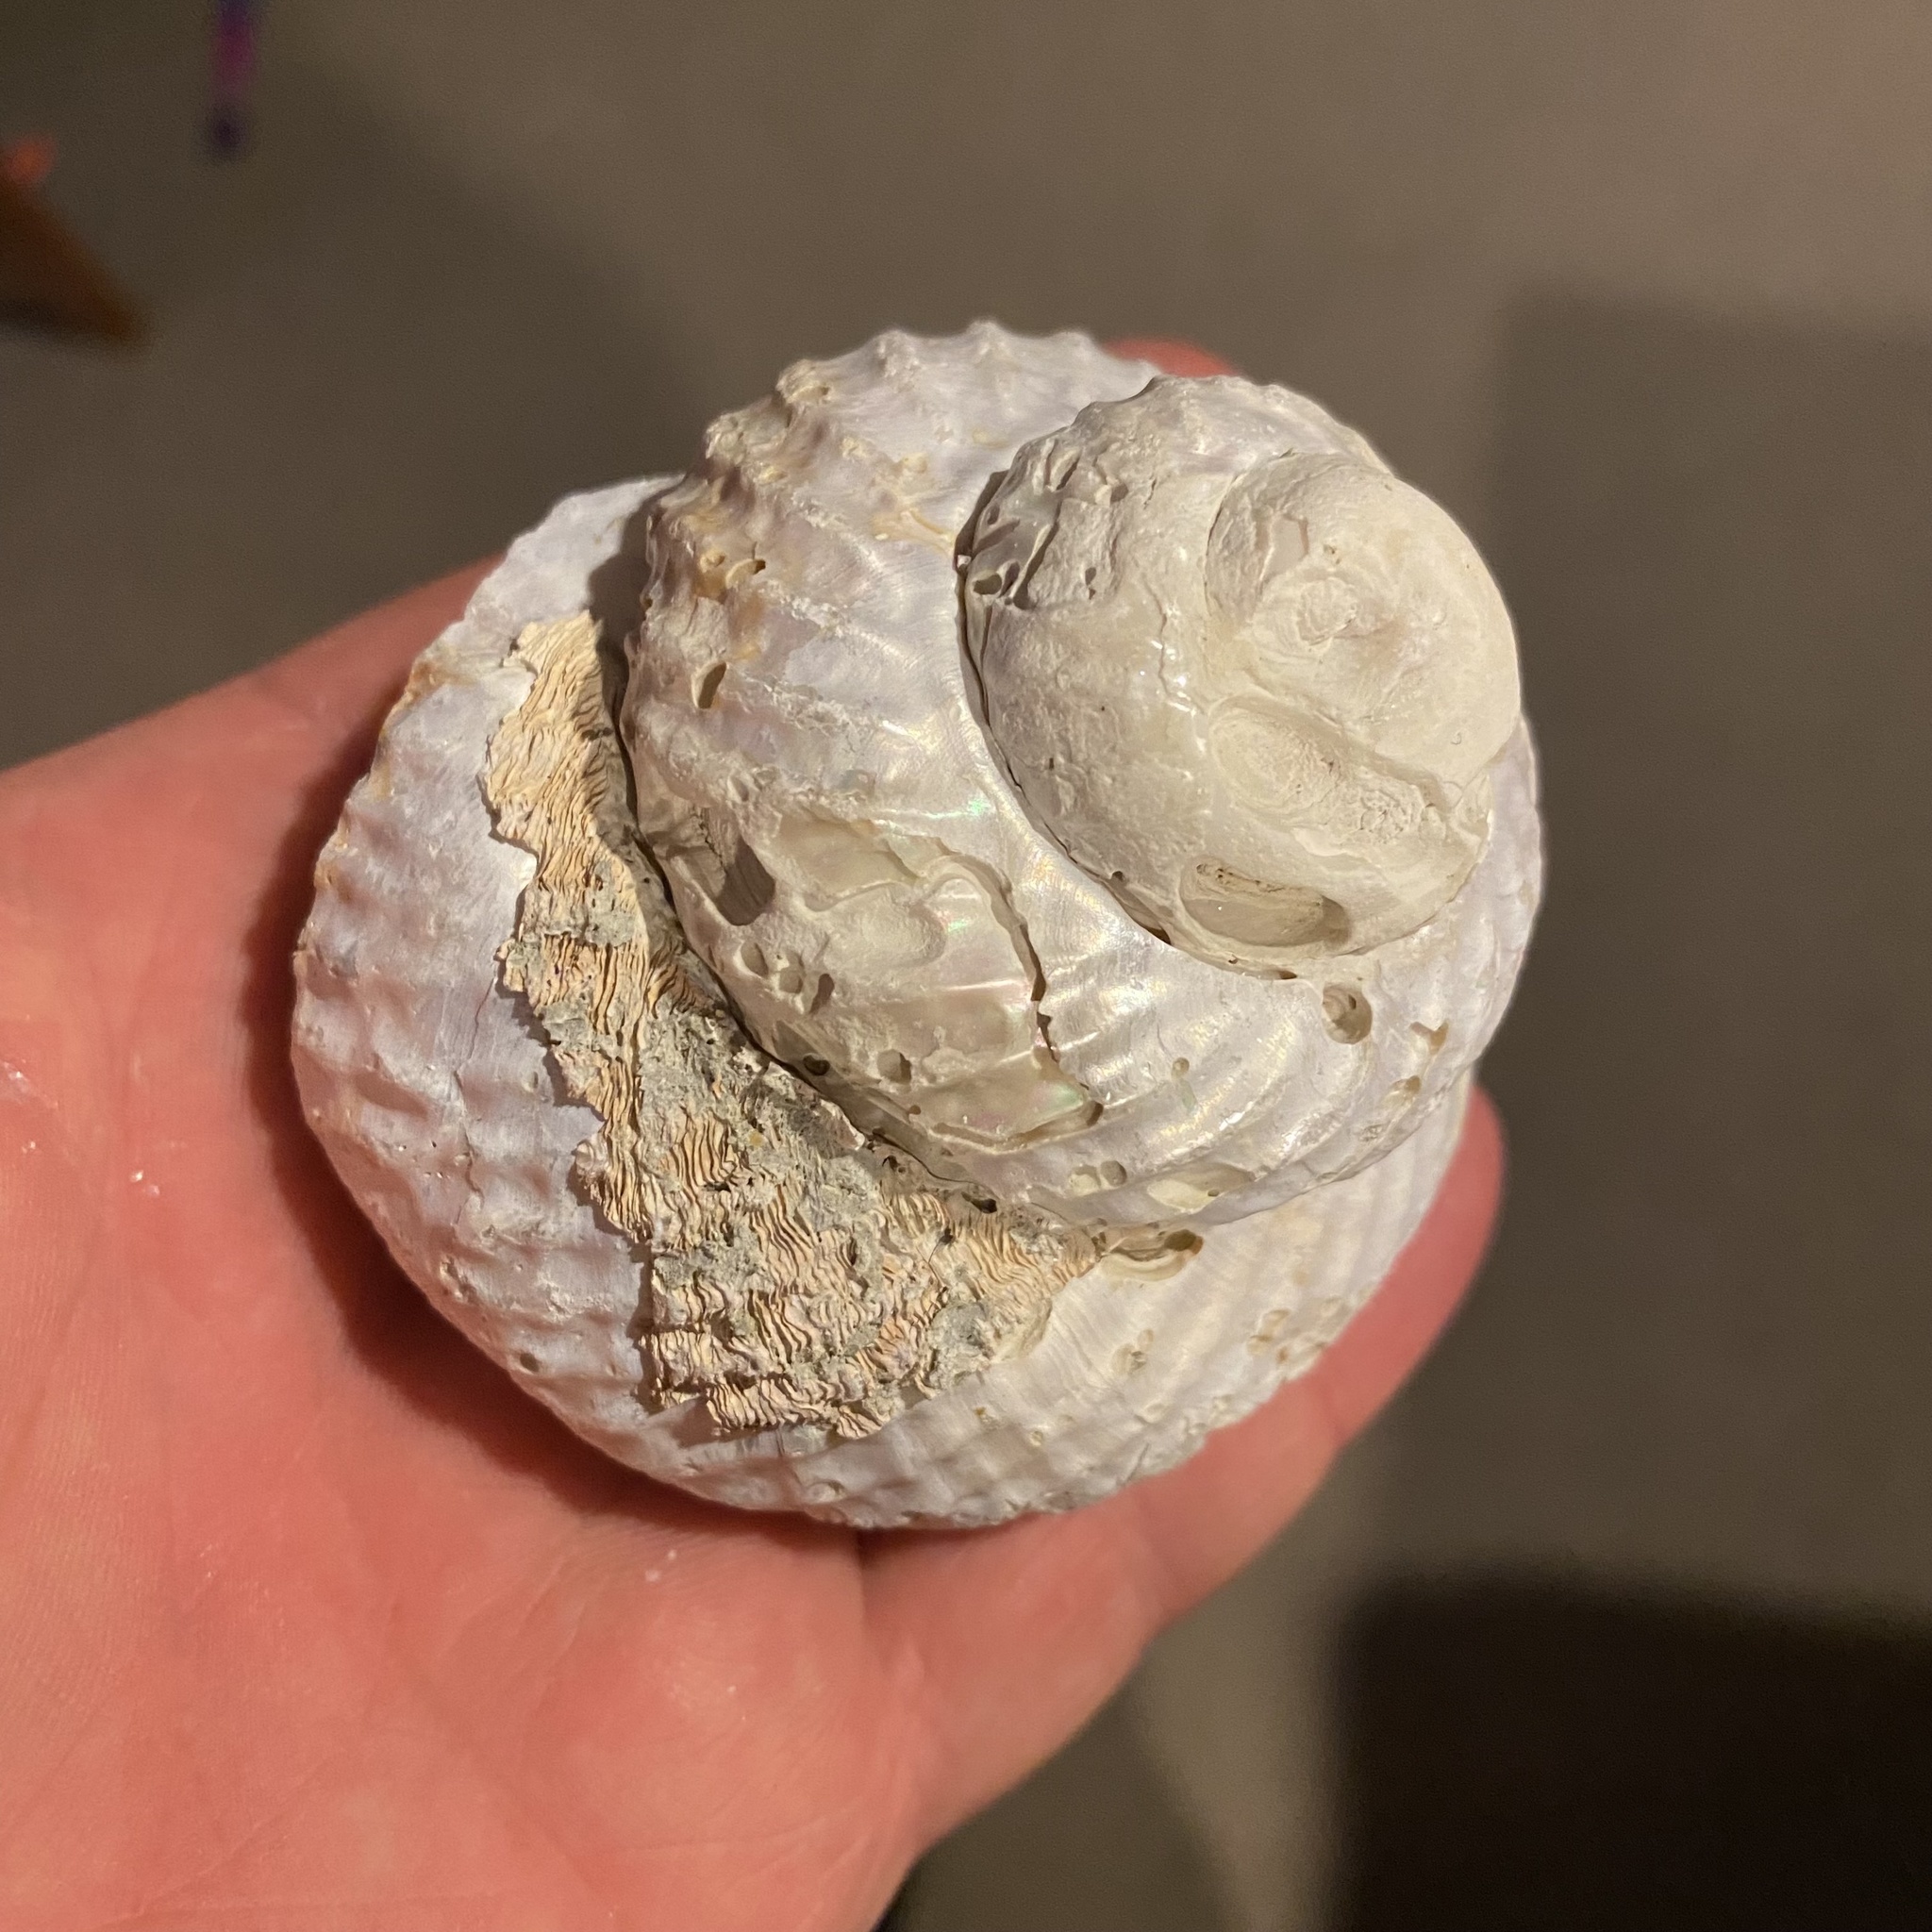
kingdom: Animalia
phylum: Mollusca
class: Gastropoda
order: Trochida
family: Turbinidae
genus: Cookia
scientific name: Cookia sulcata
